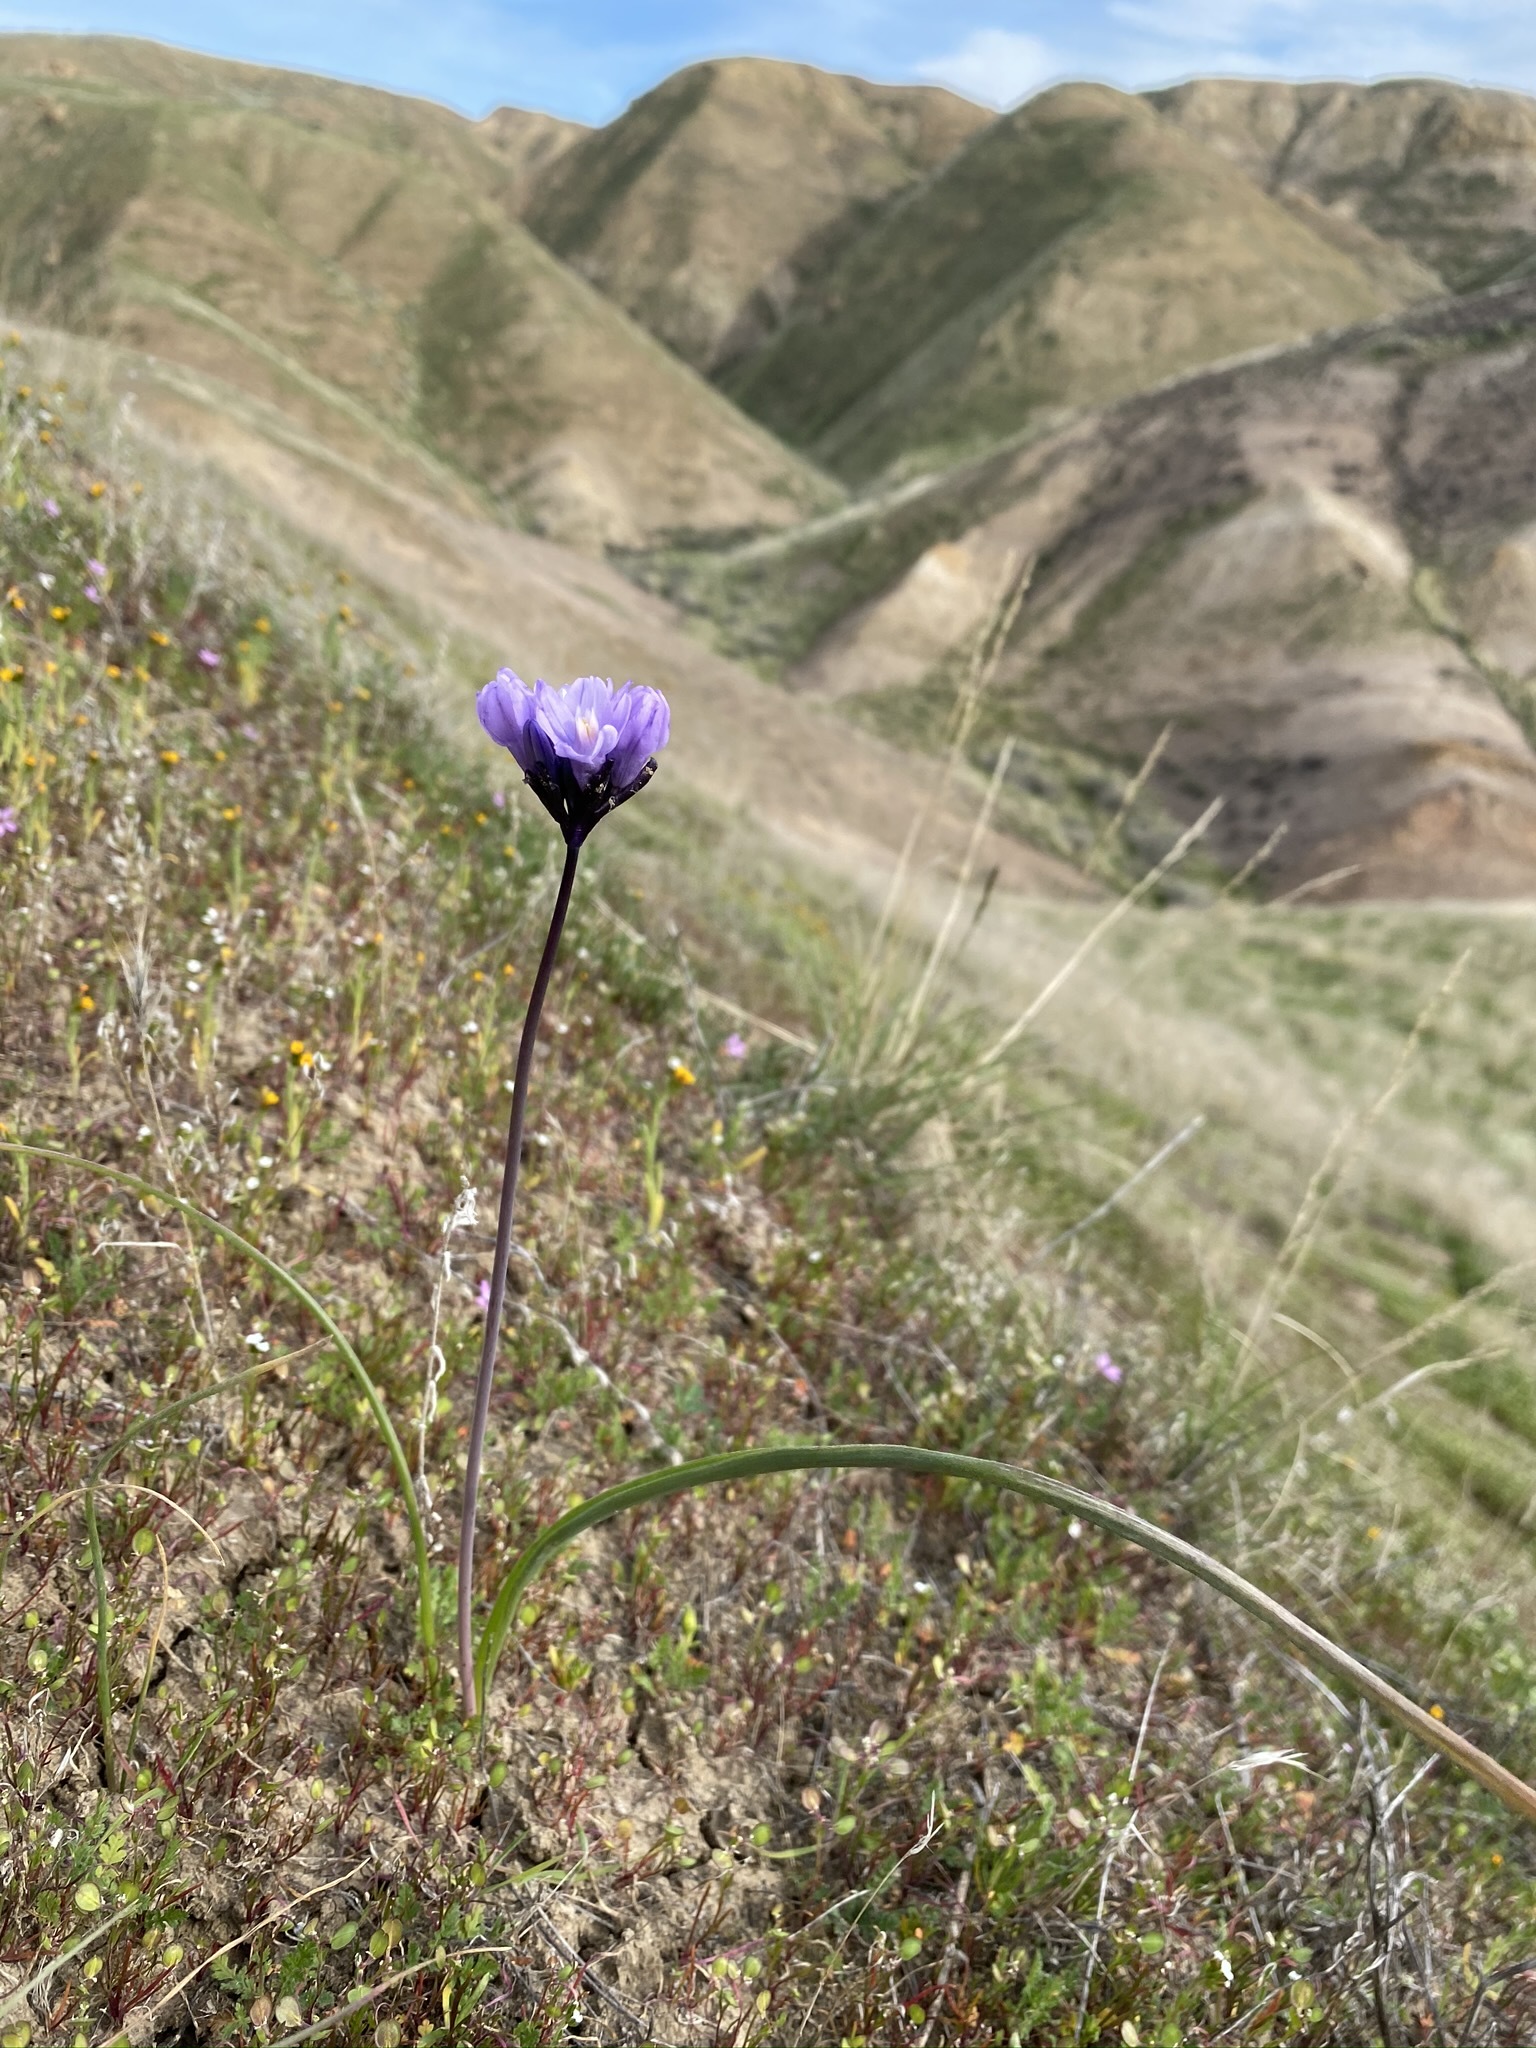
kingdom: Plantae
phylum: Tracheophyta
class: Liliopsida
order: Asparagales
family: Asparagaceae
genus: Dipterostemon
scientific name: Dipterostemon capitatus
